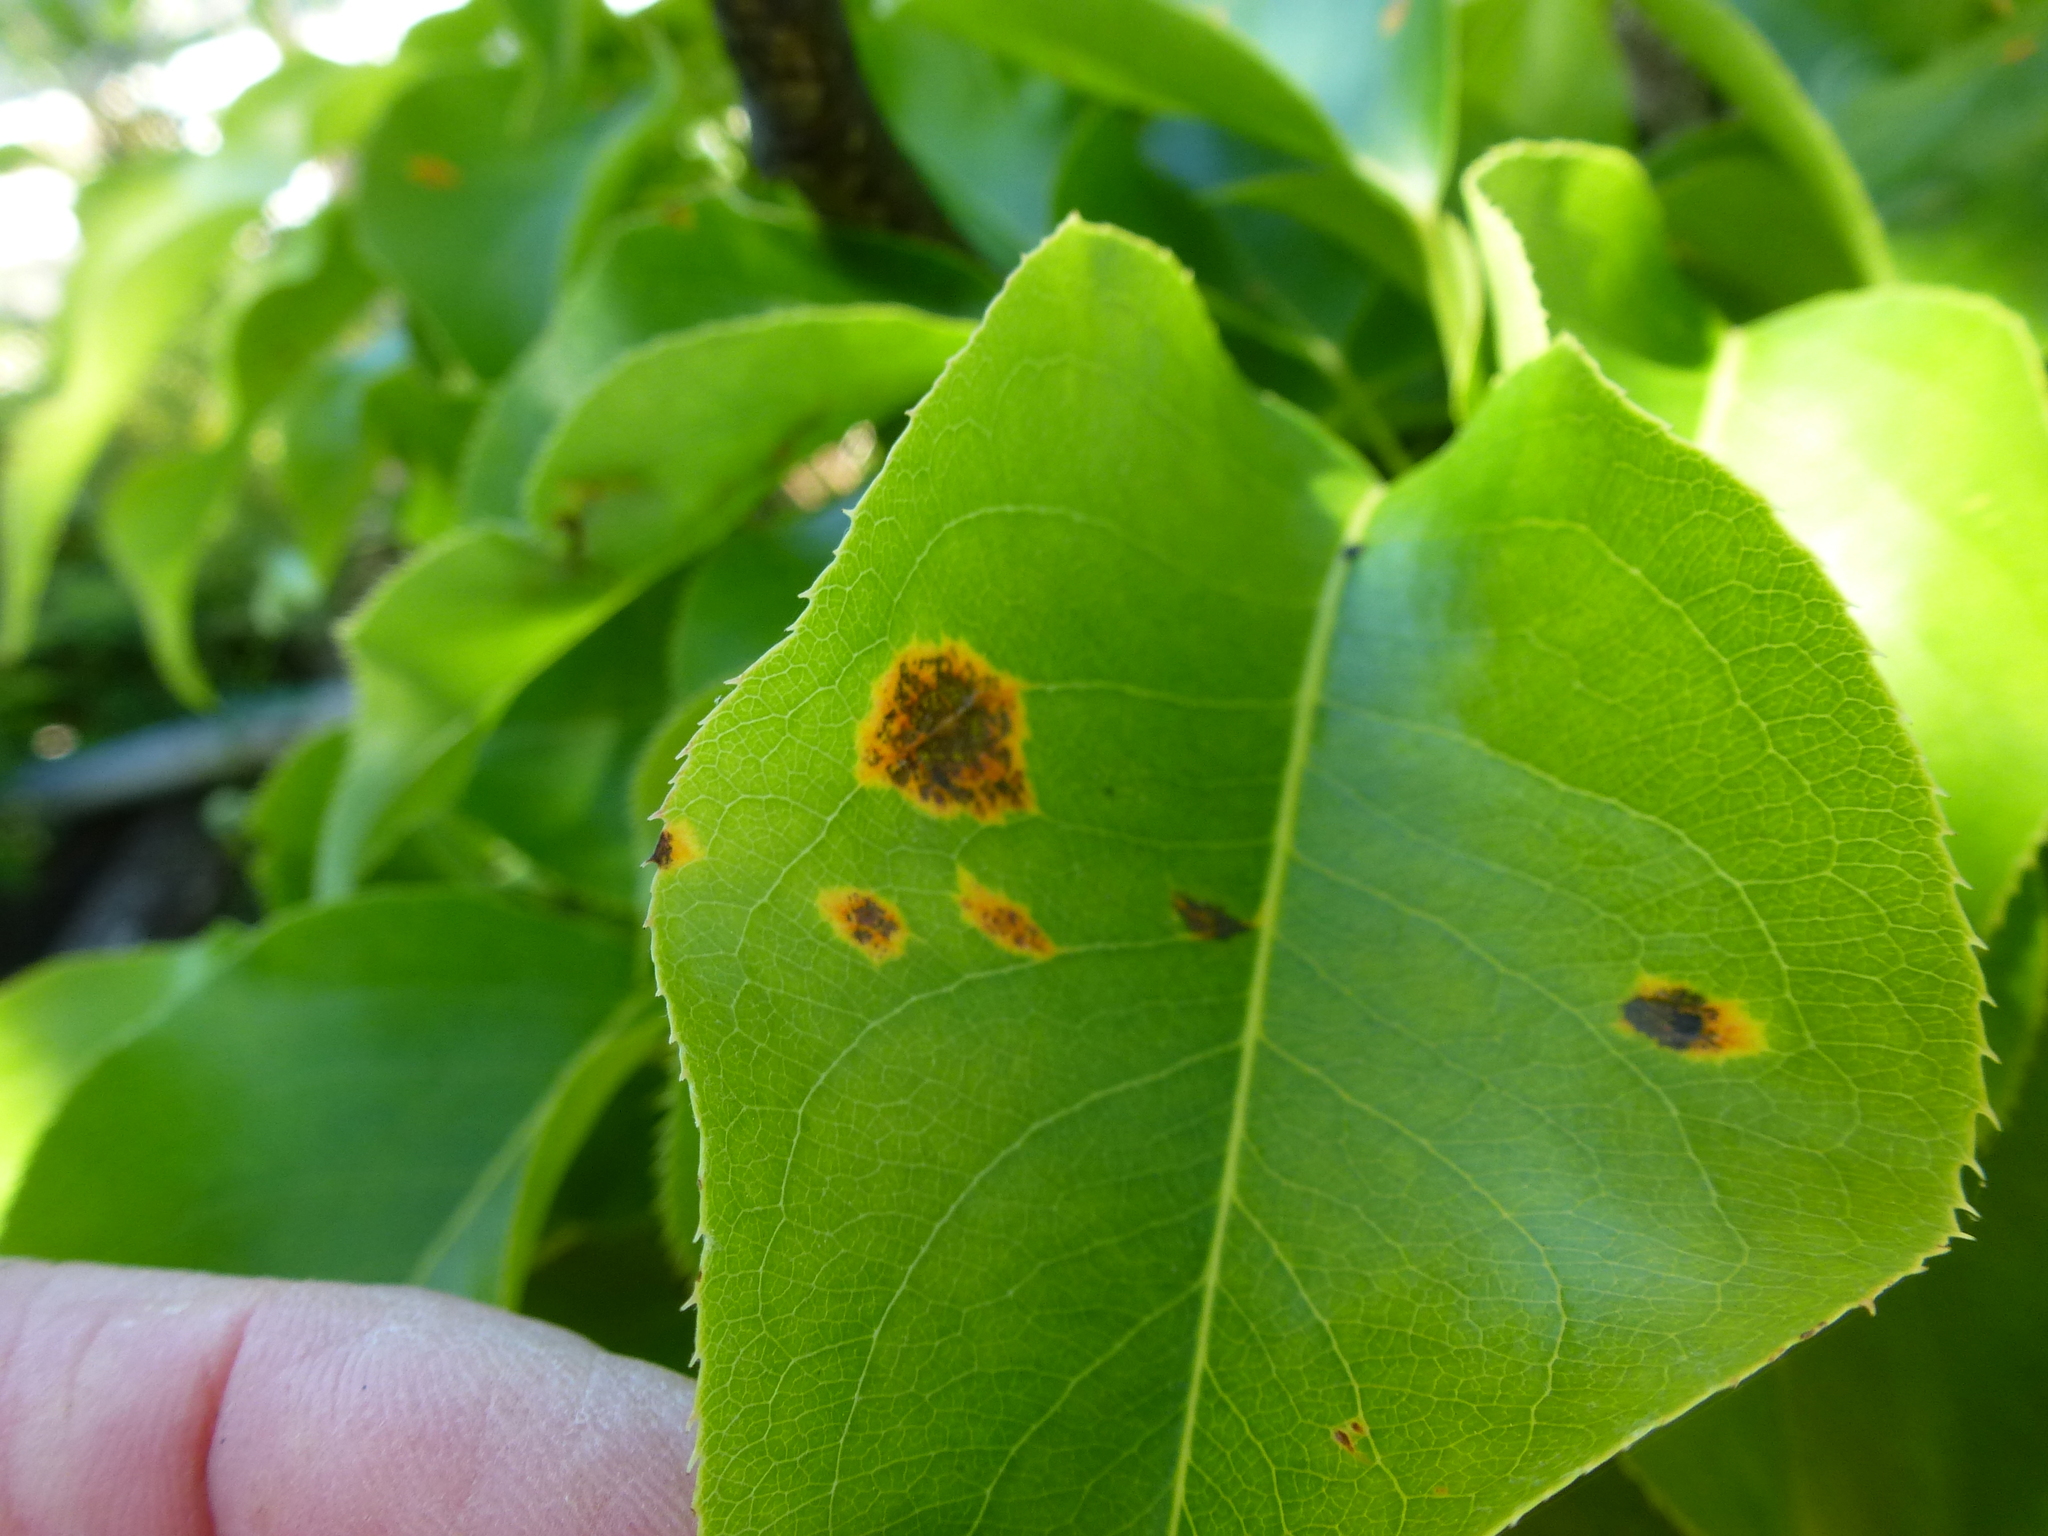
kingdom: Fungi
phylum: Basidiomycota
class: Pucciniomycetes
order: Pucciniales
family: Gymnosporangiaceae
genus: Gymnosporangium
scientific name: Gymnosporangium sabinae
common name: Pear trellis rust fungus
